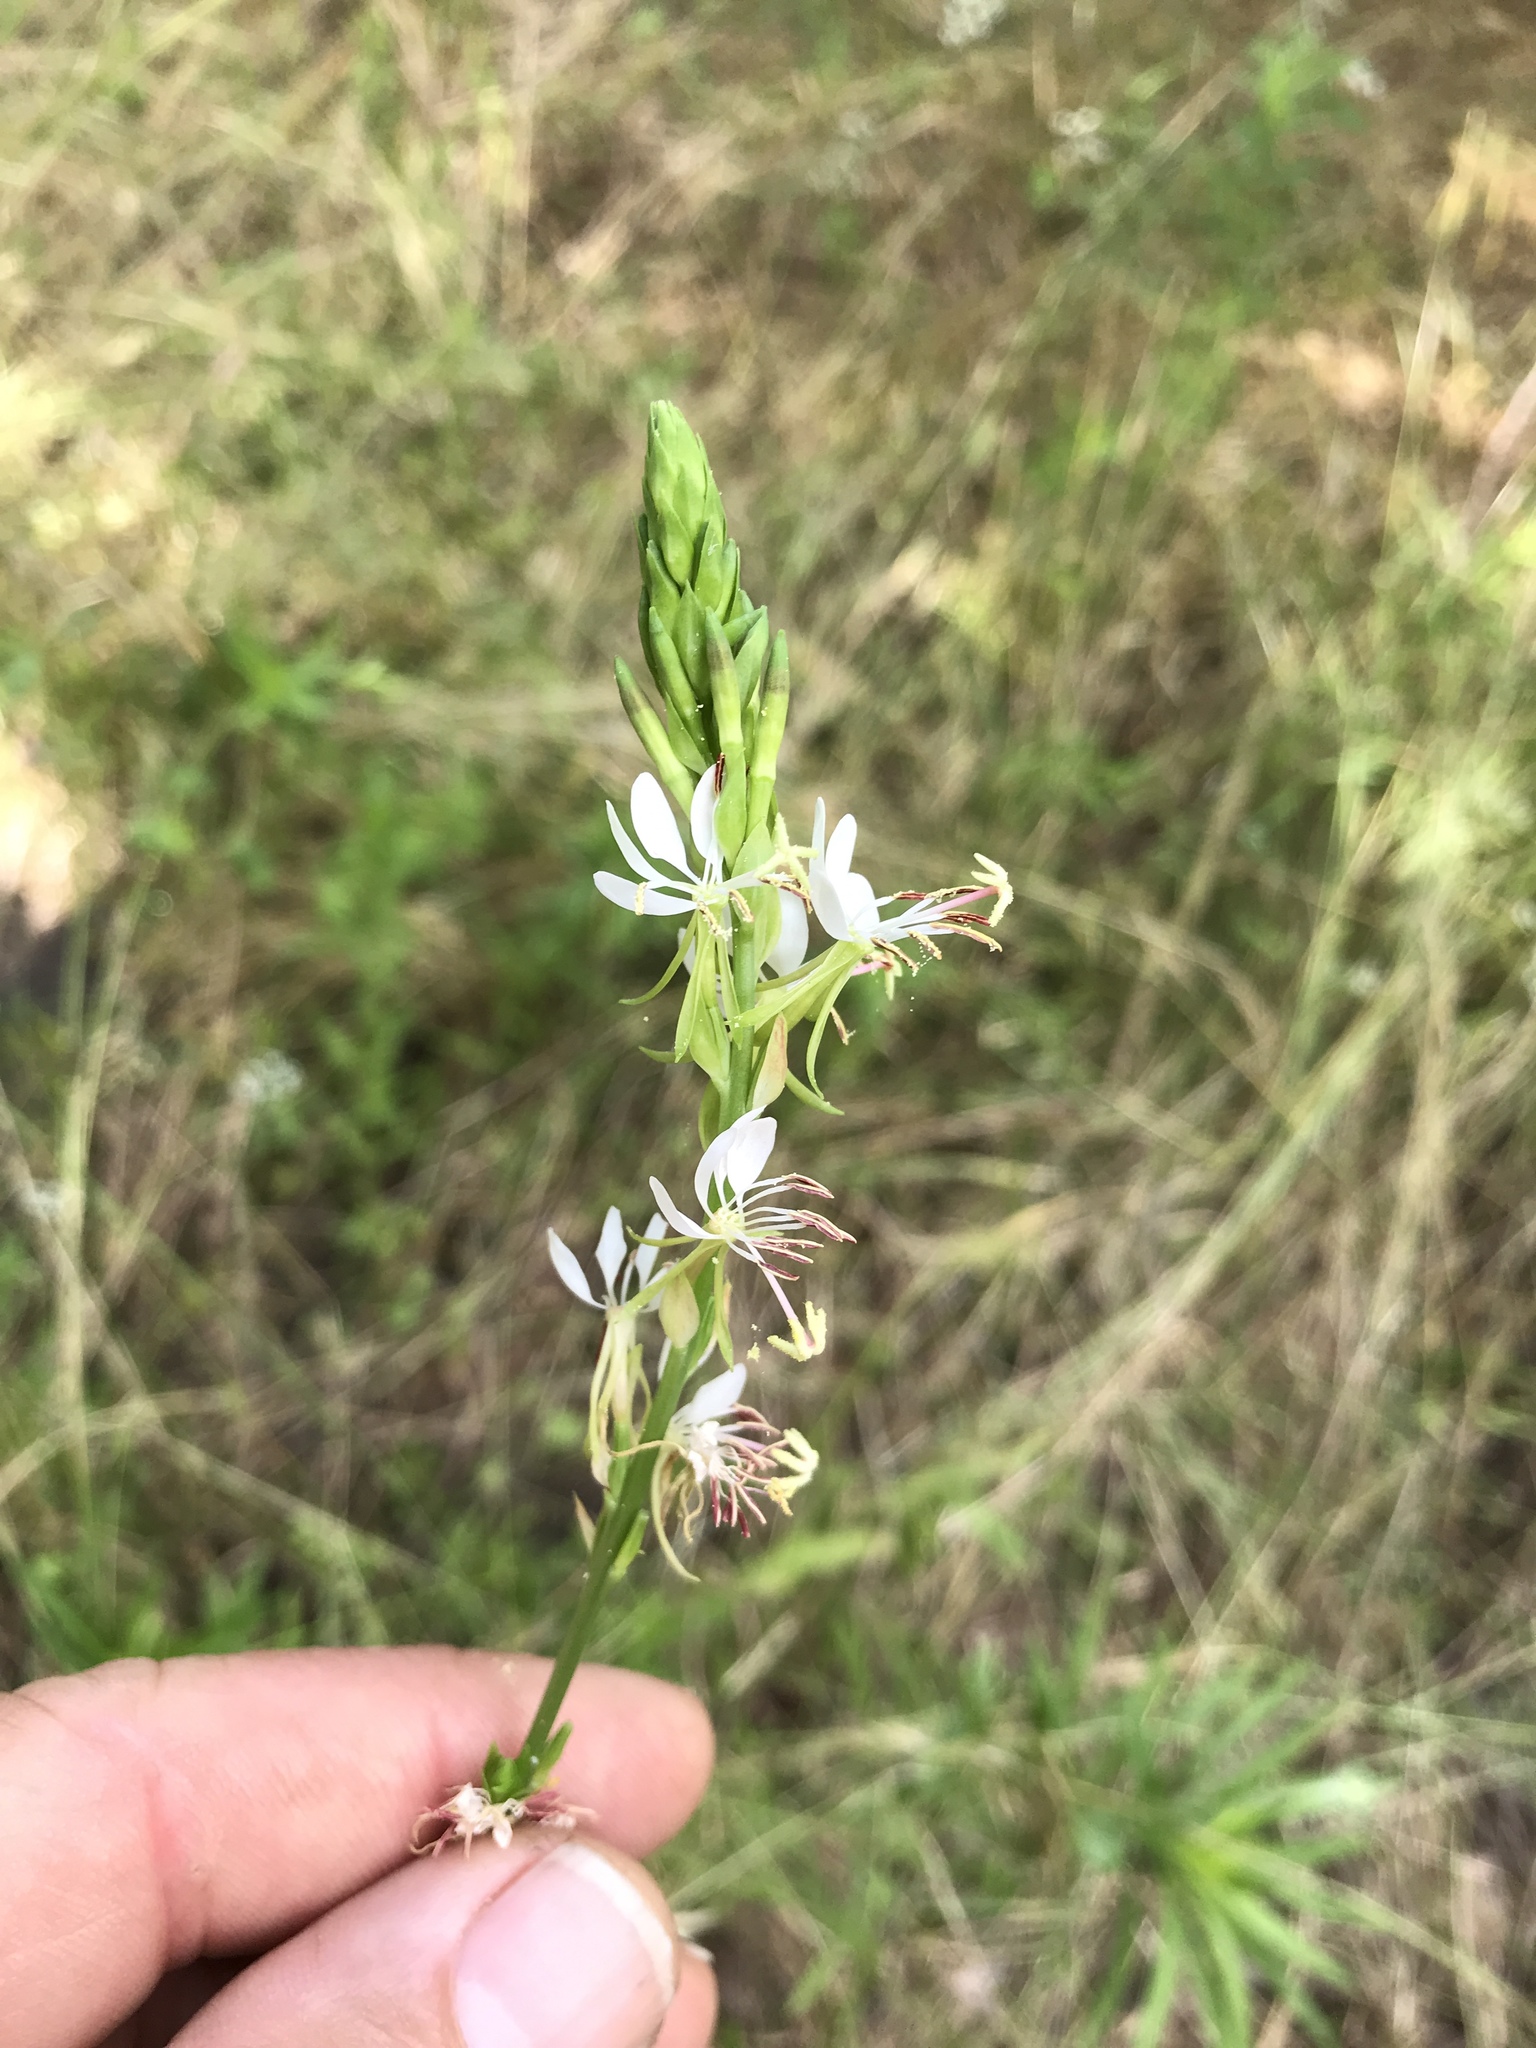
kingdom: Plantae
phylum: Tracheophyta
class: Magnoliopsida
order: Myrtales
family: Onagraceae
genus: Oenothera
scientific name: Oenothera suffulta
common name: Kisses
